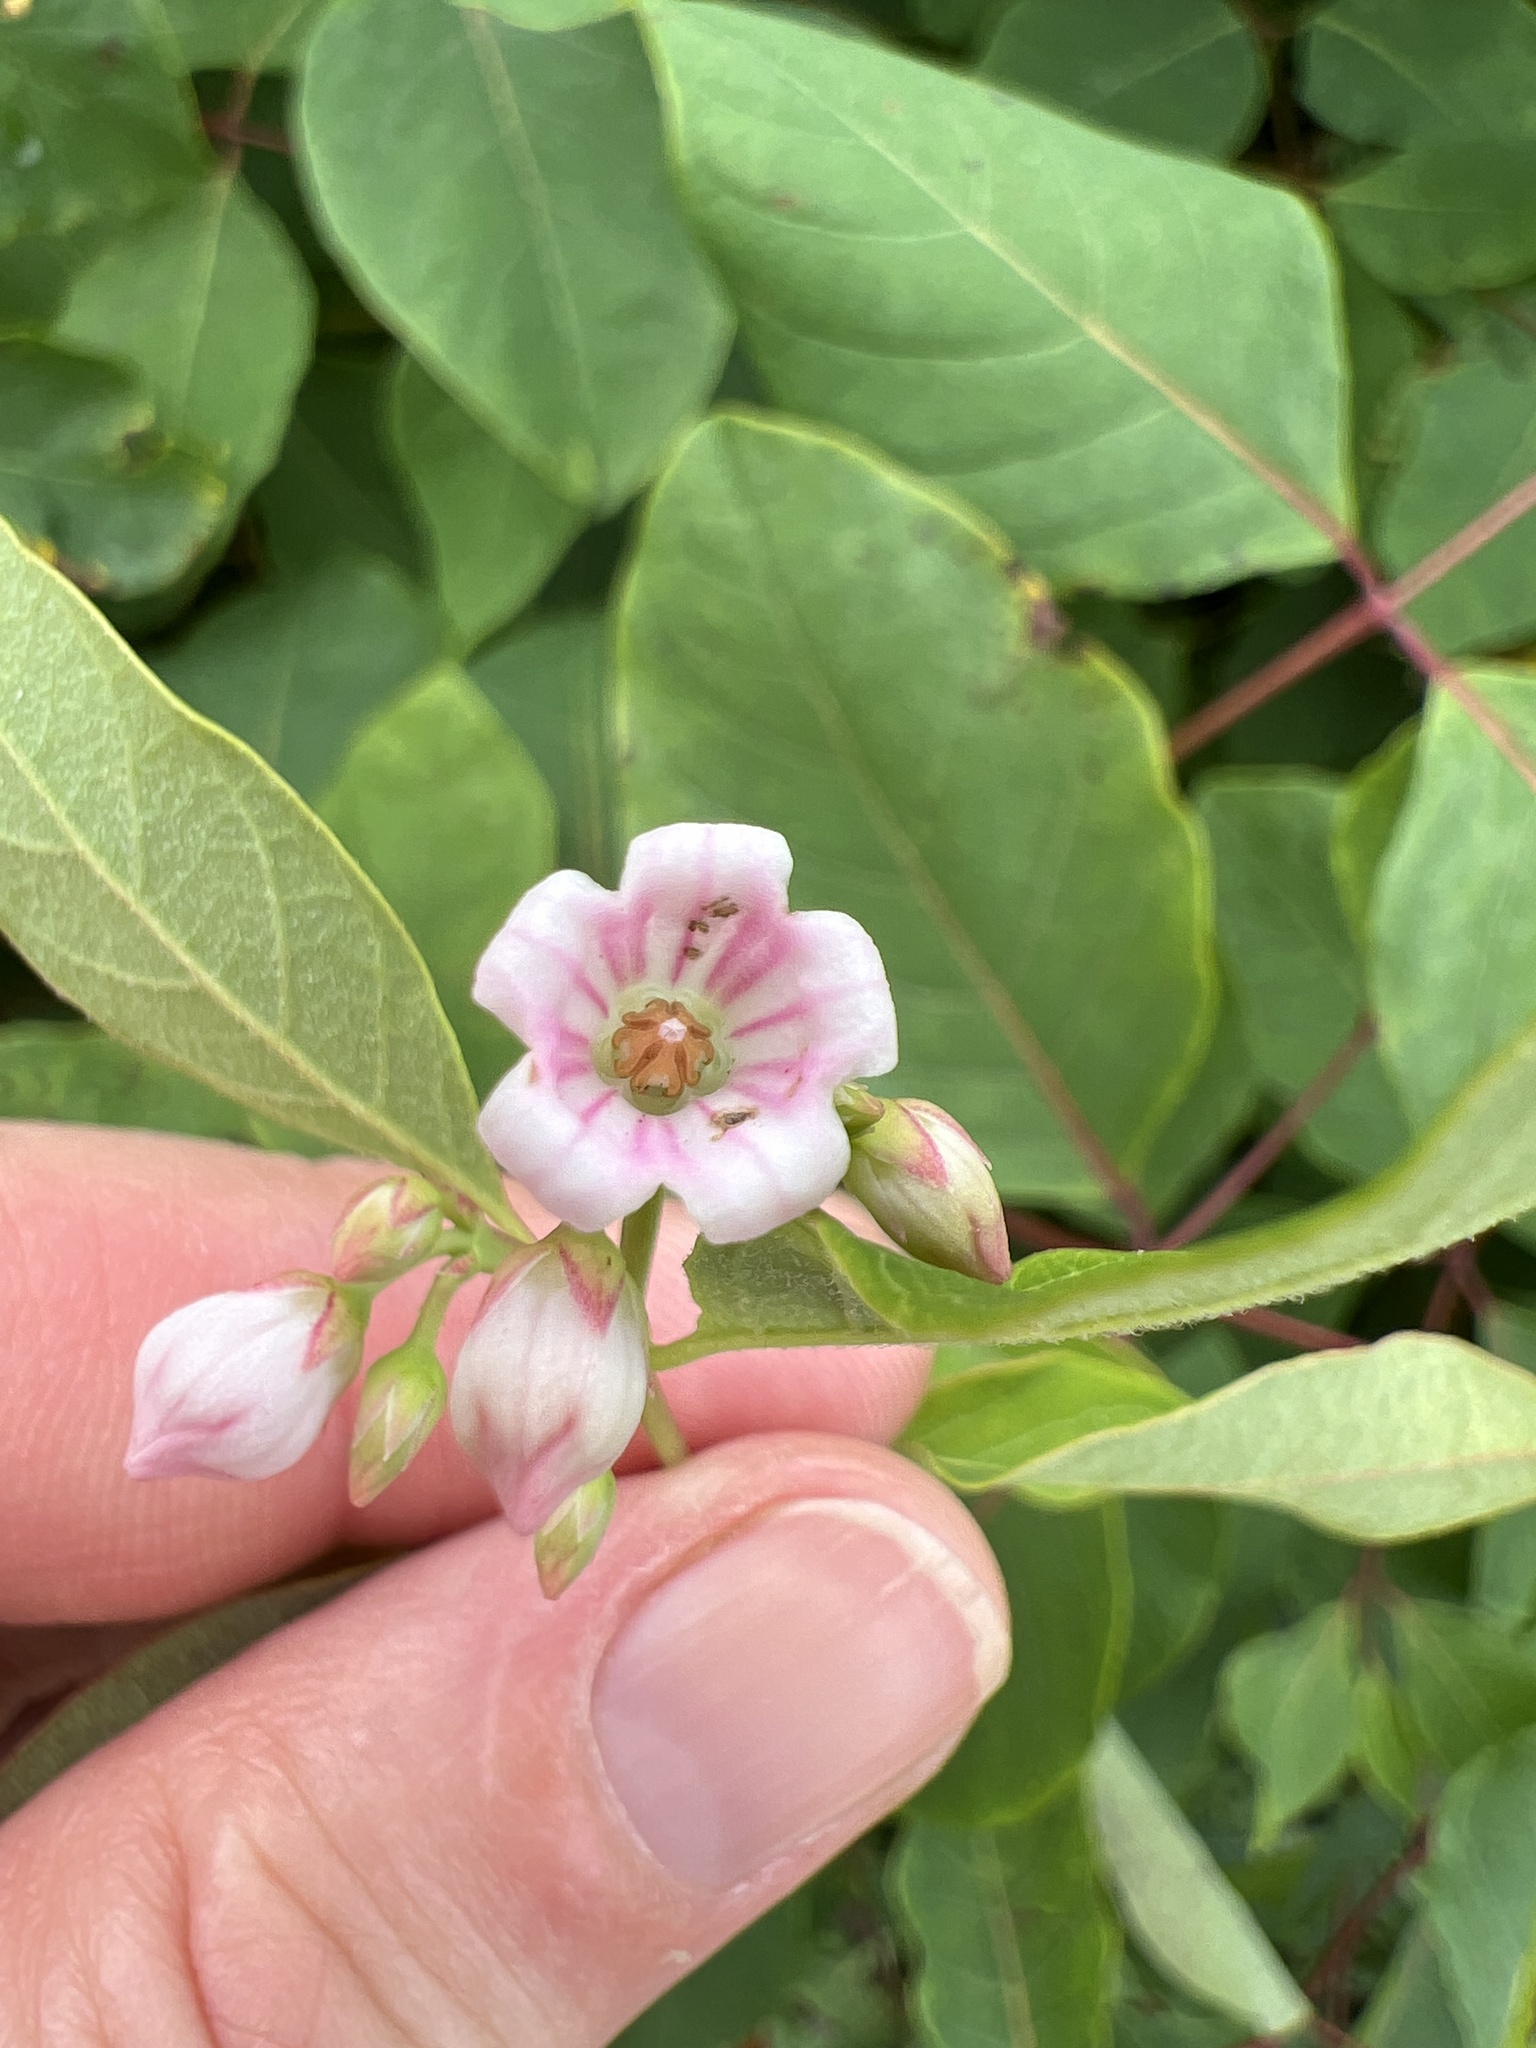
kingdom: Plantae
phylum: Tracheophyta
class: Magnoliopsida
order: Gentianales
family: Apocynaceae
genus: Apocynum
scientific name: Apocynum androsaemifolium
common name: Spreading dogbane
